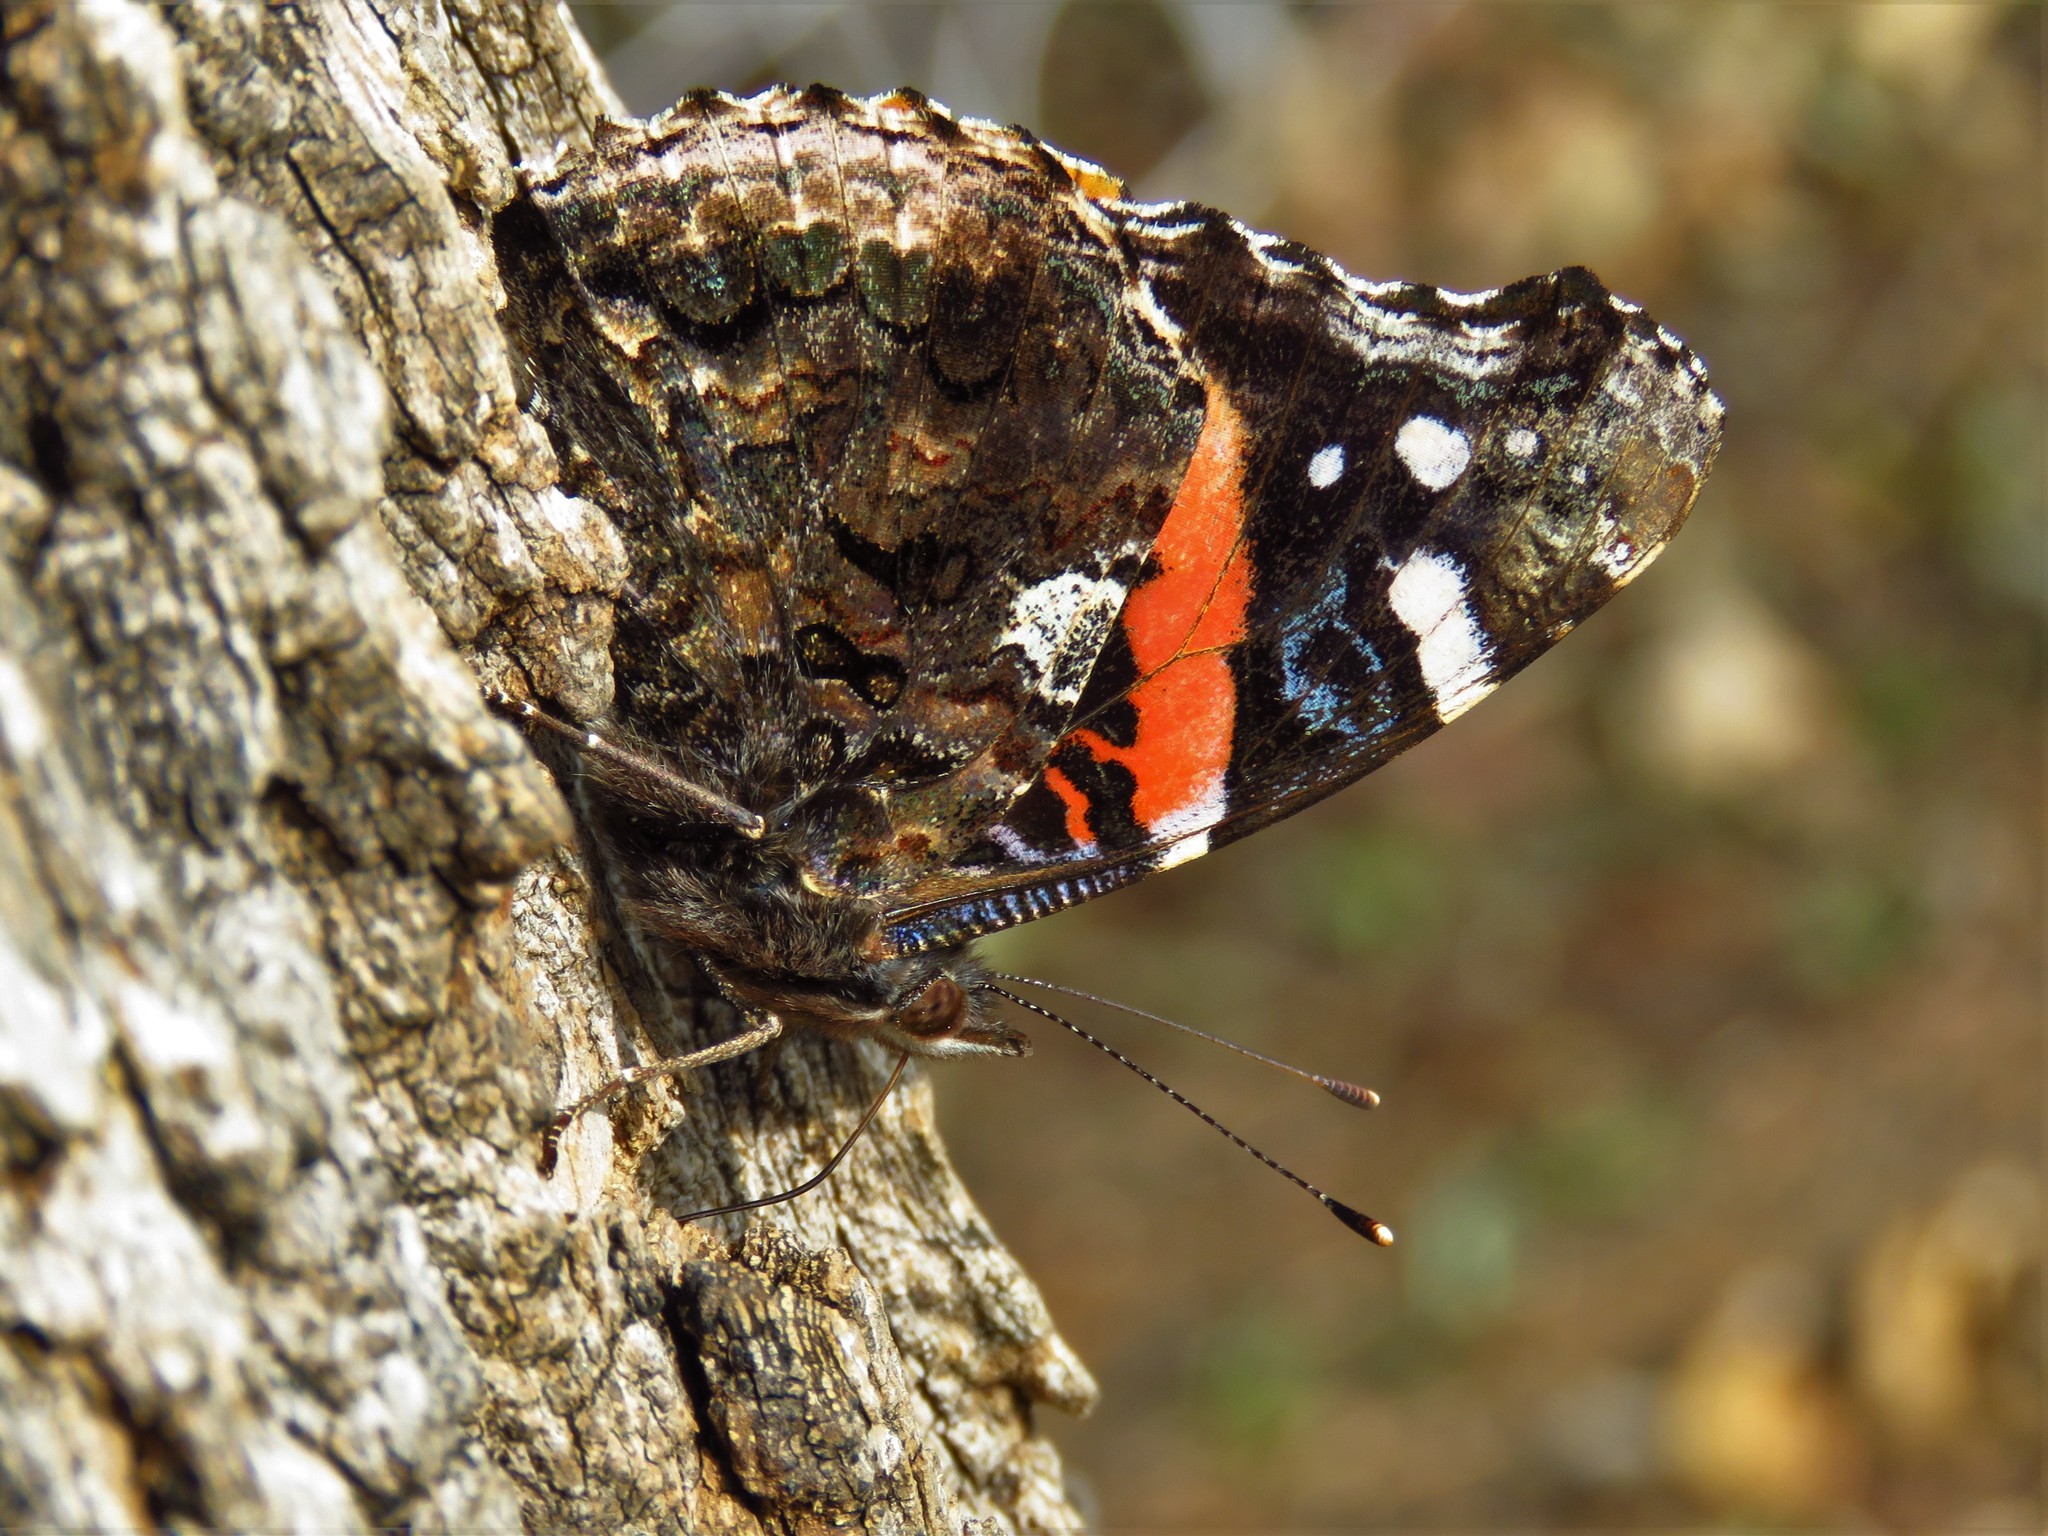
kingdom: Animalia
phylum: Arthropoda
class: Insecta
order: Lepidoptera
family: Nymphalidae
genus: Vanessa
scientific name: Vanessa atalanta
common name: Red admiral
